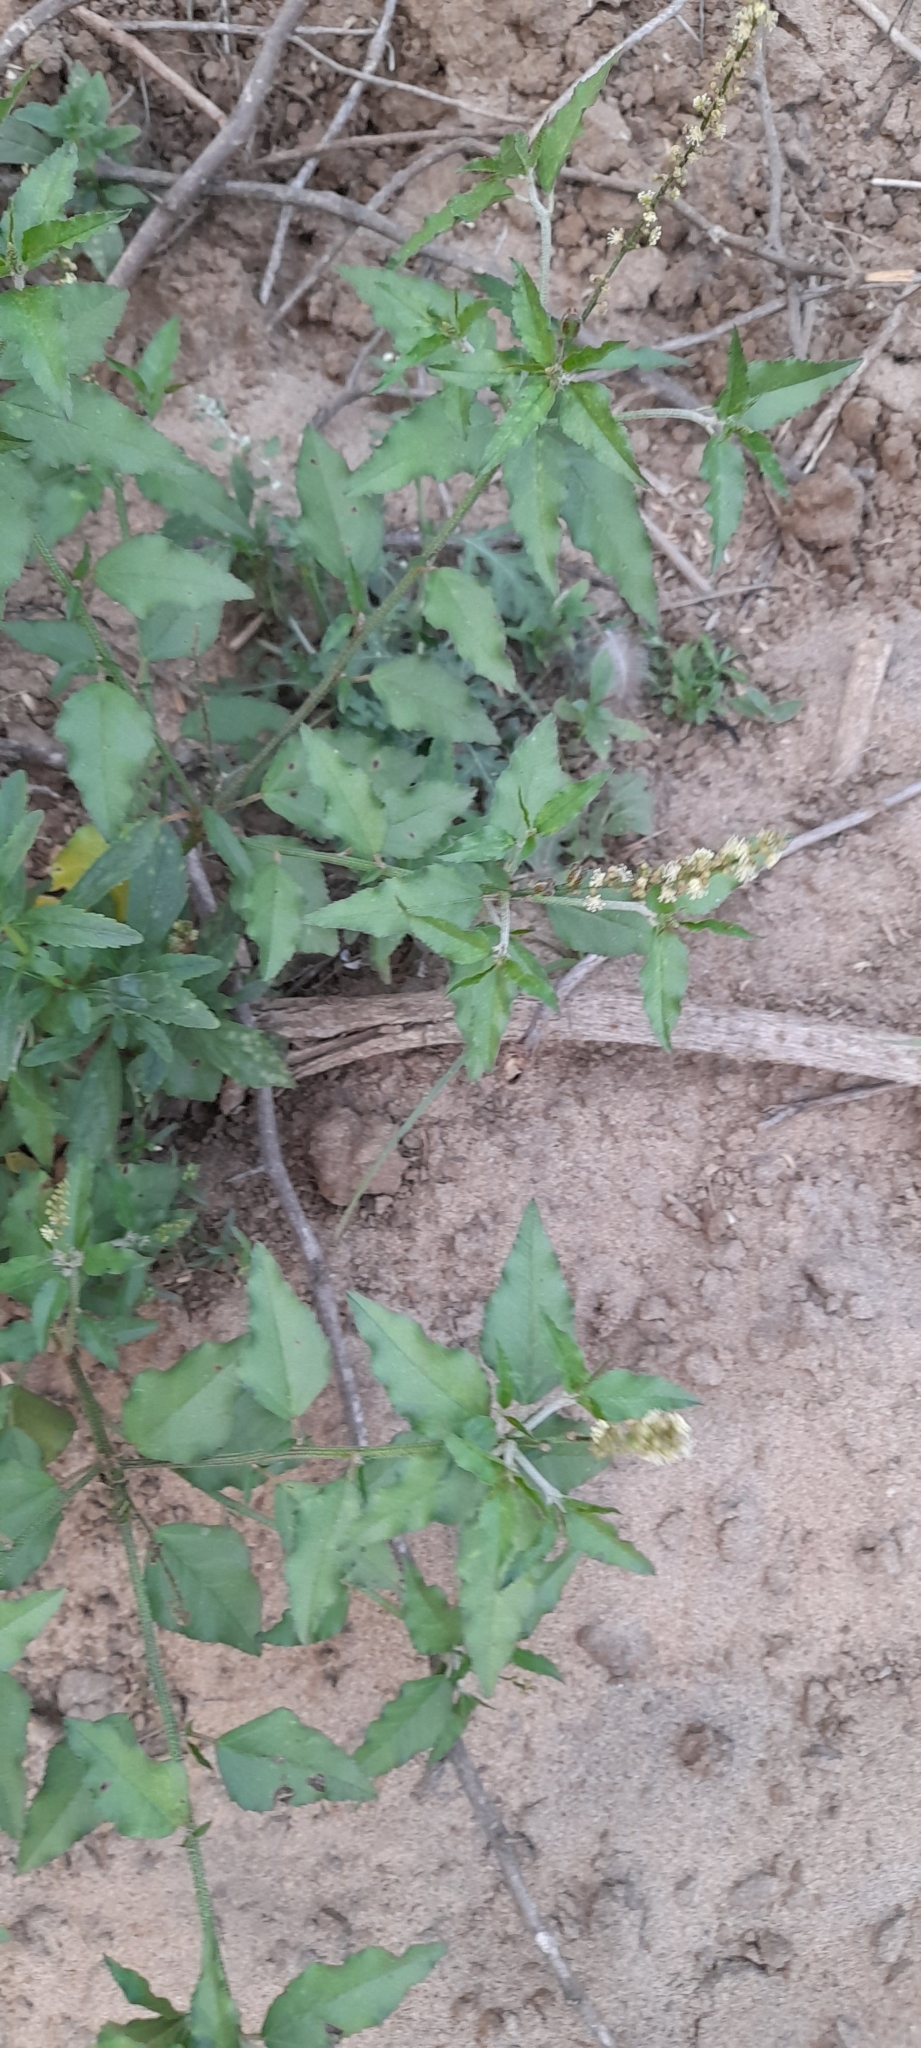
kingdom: Plantae
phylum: Tracheophyta
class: Magnoliopsida
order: Malpighiales
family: Euphorbiaceae
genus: Croton
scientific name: Croton bonplandianus
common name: Bonpland's croton
